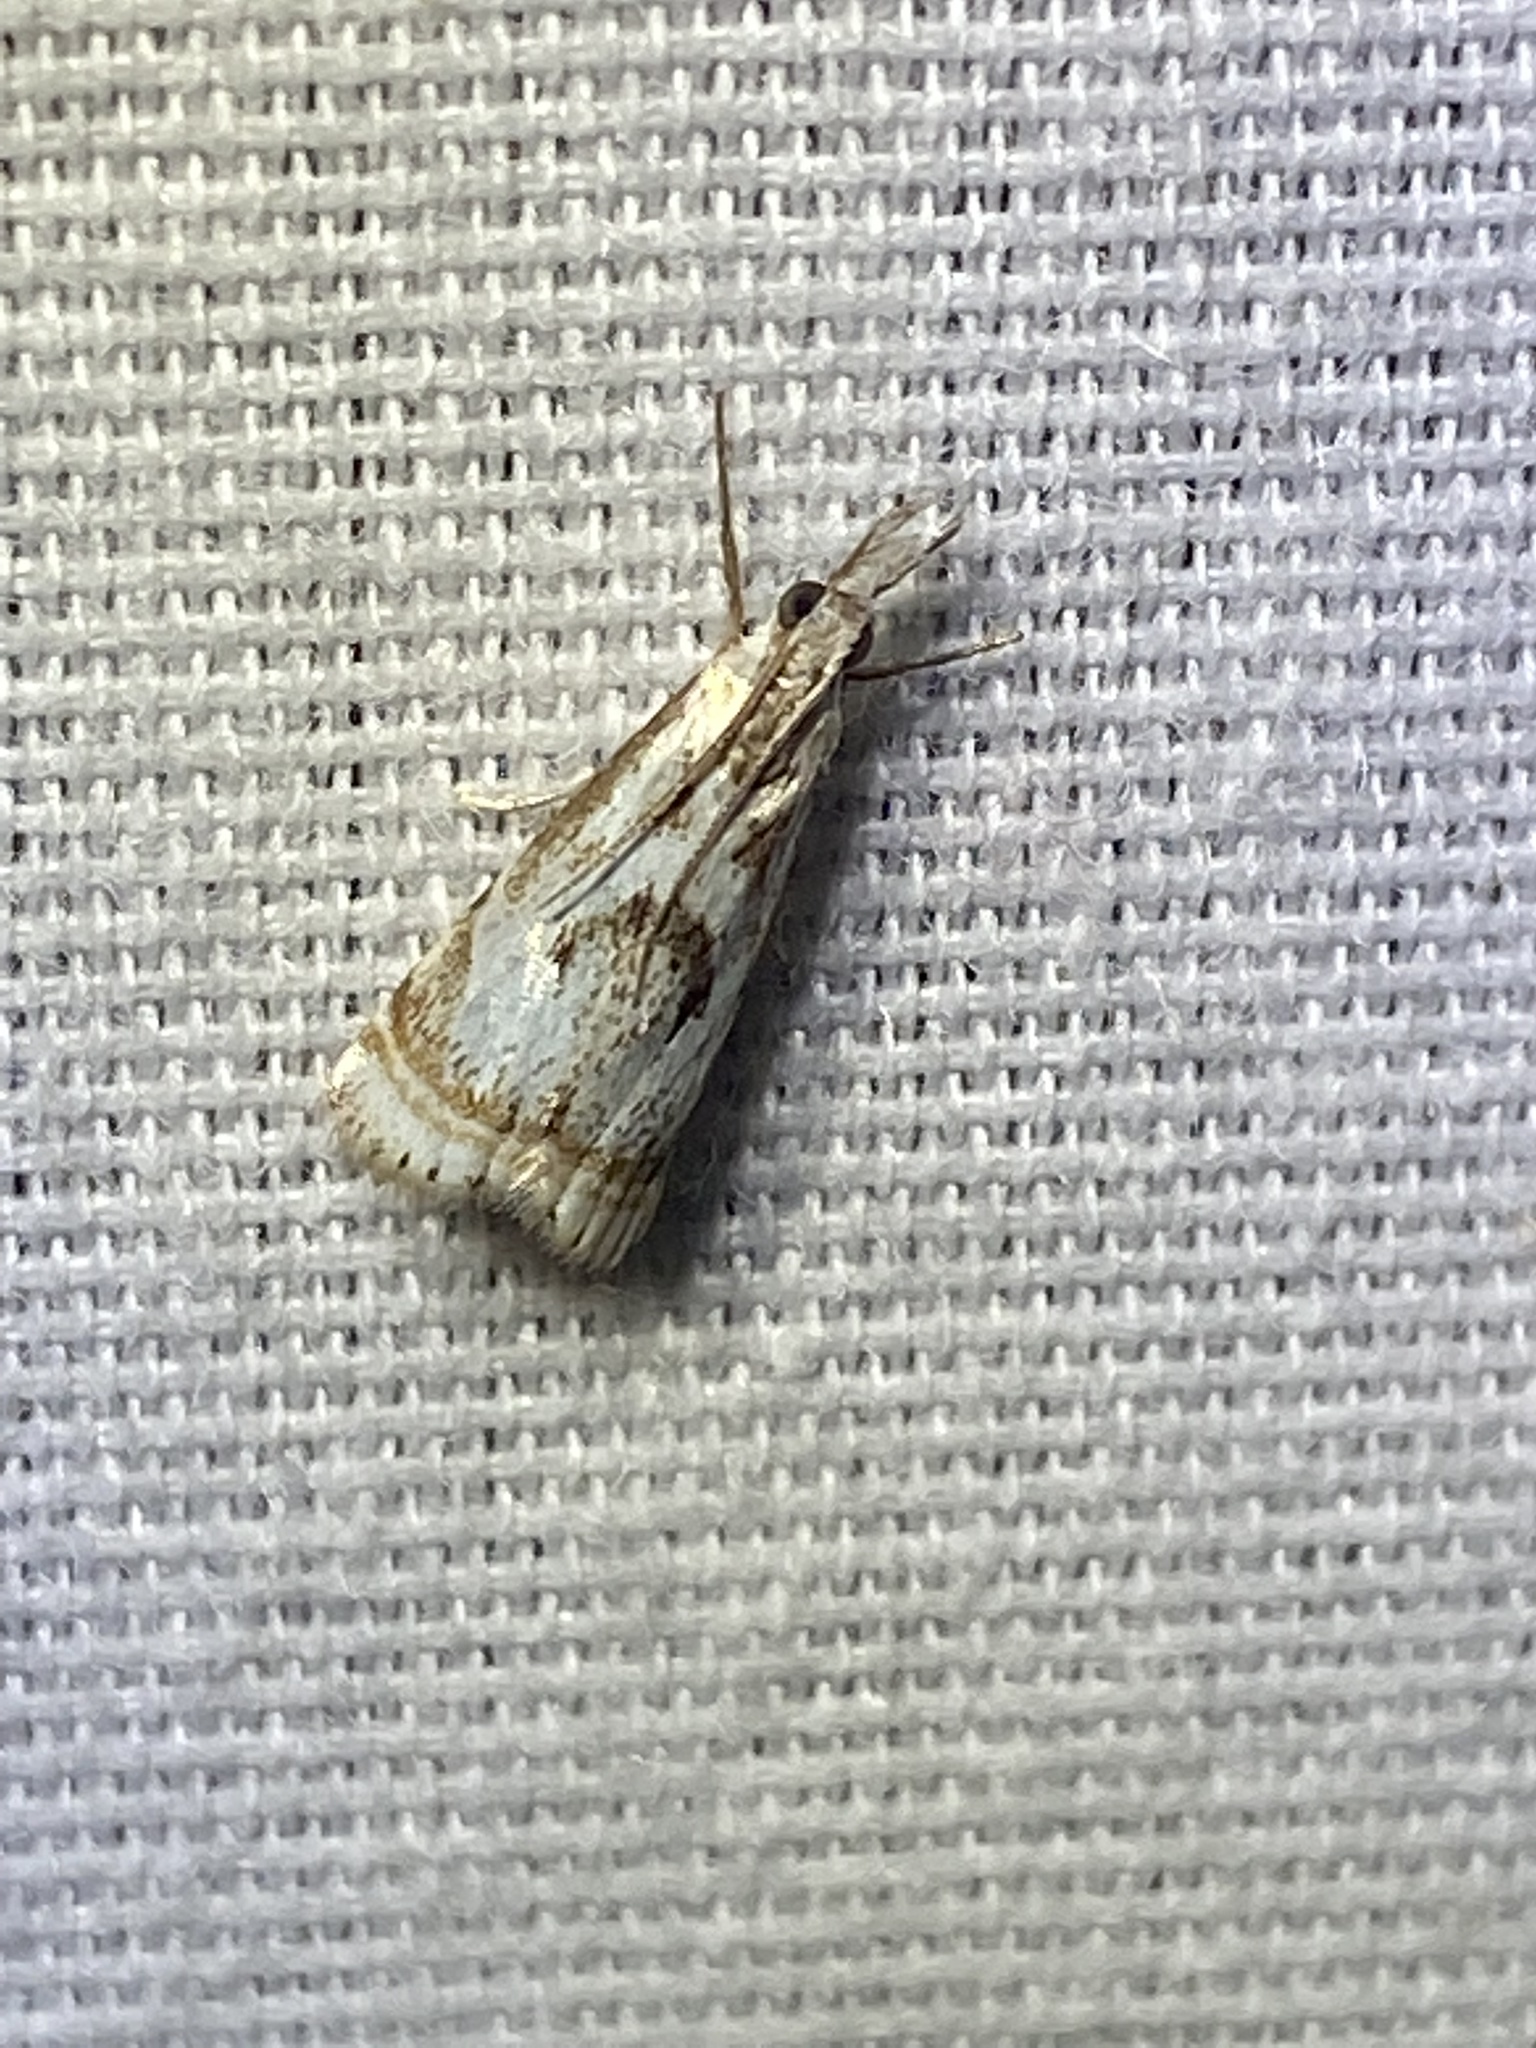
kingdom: Animalia
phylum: Arthropoda
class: Insecta
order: Lepidoptera
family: Crambidae
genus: Microcrambus
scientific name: Microcrambus elegans
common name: Elegant grass-veneer
